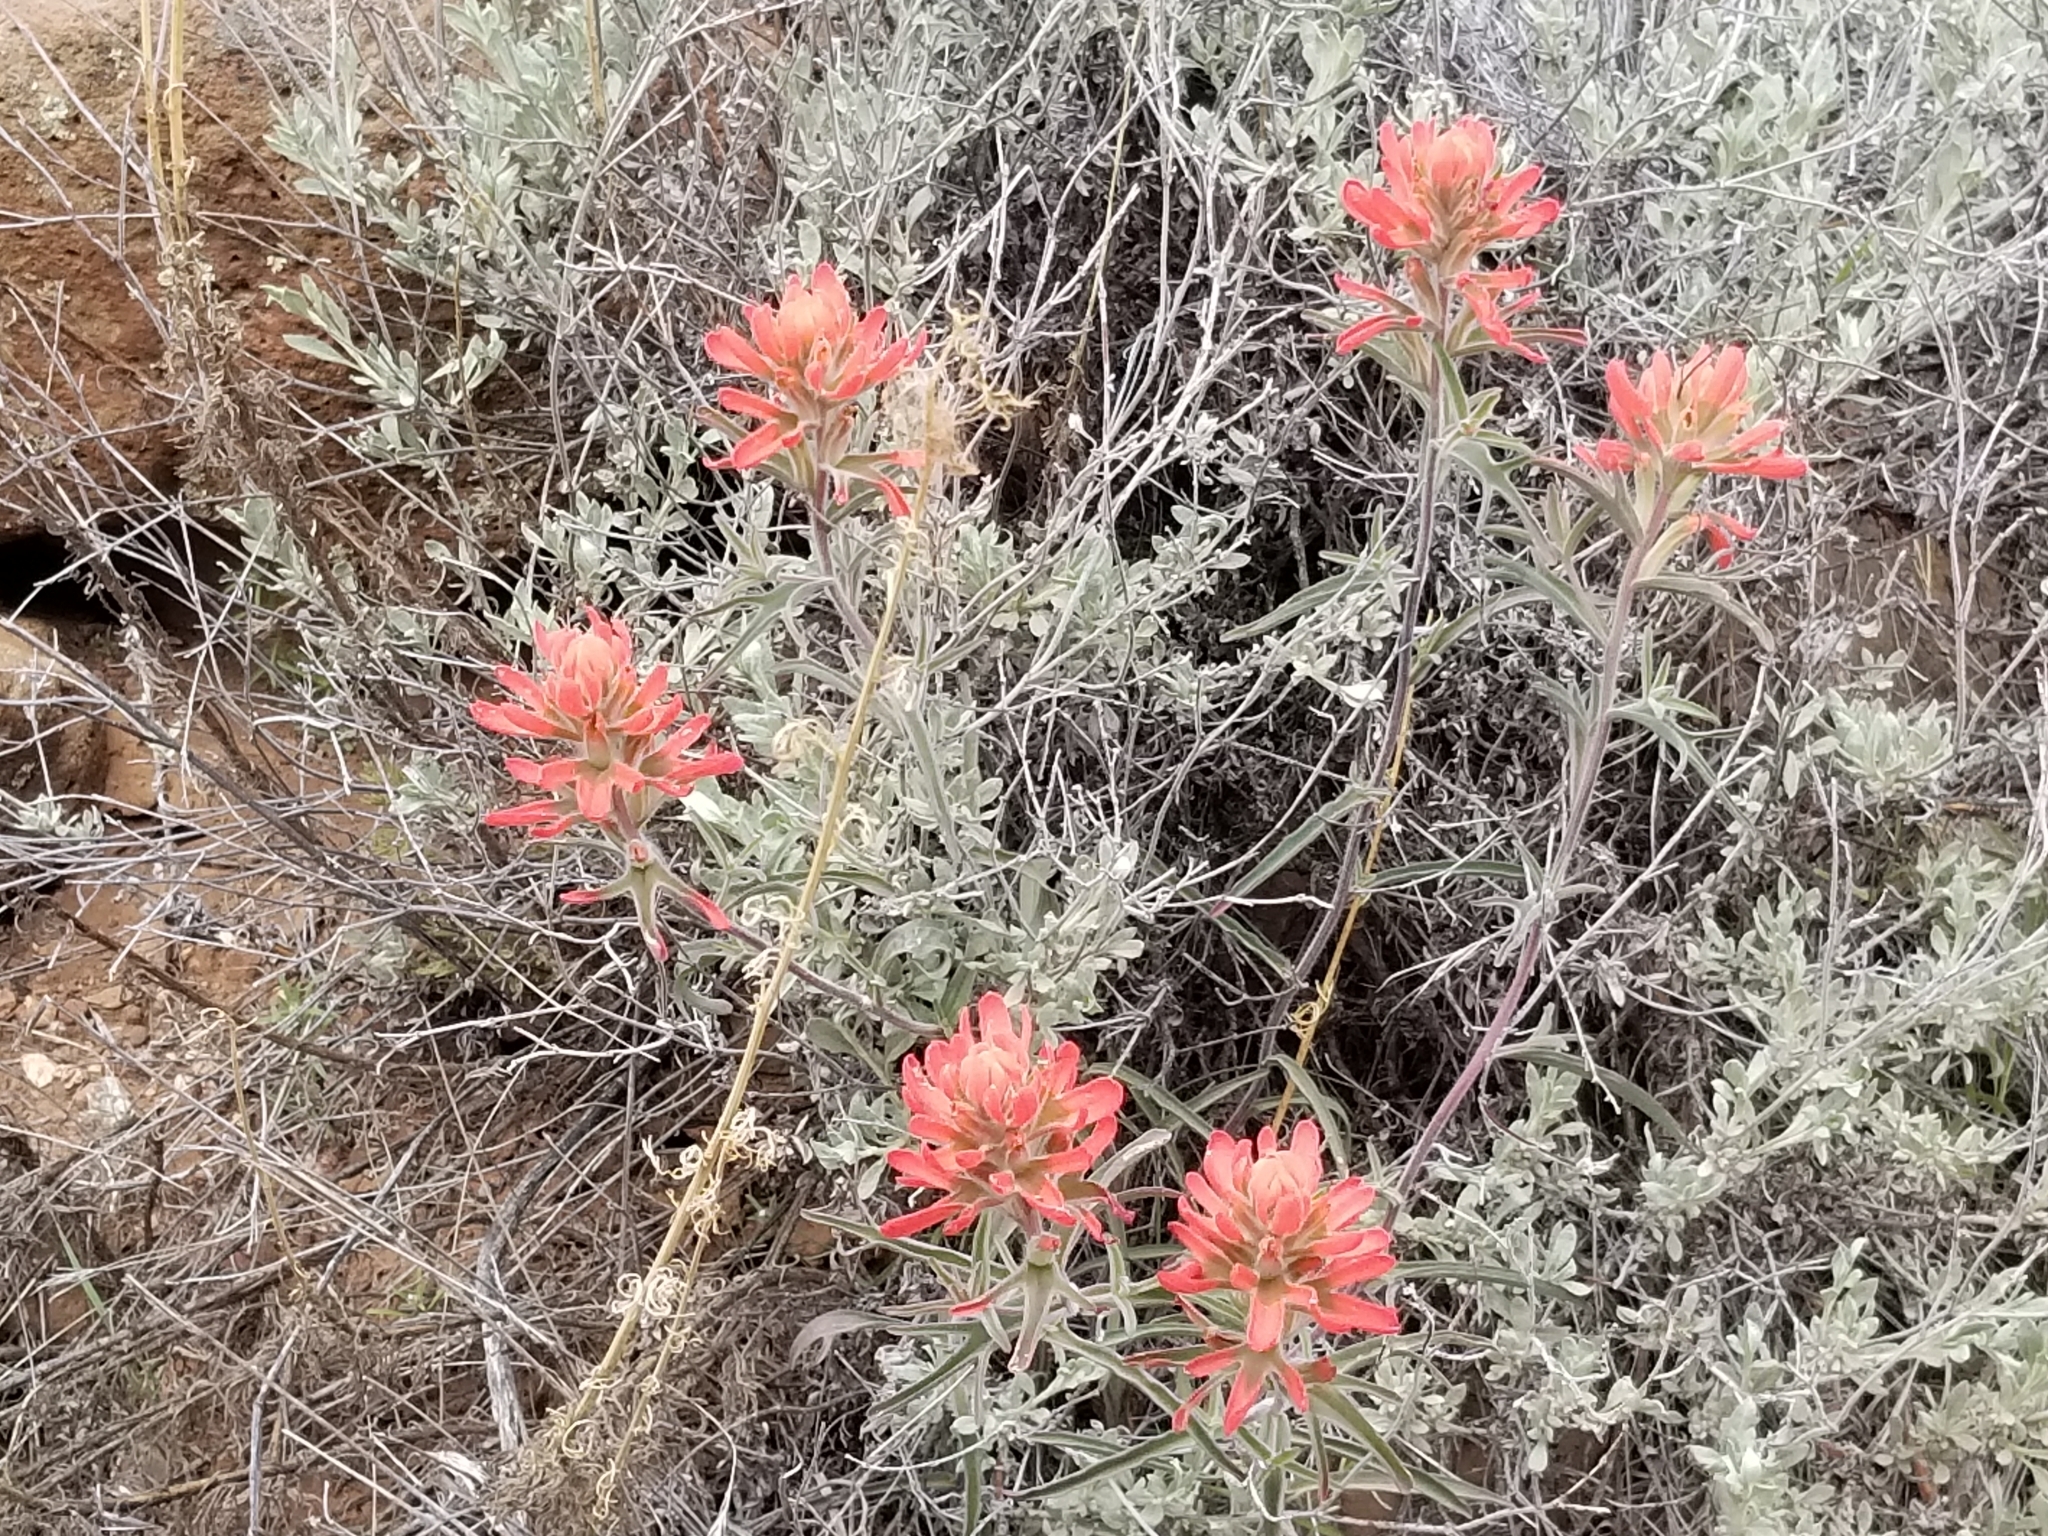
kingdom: Plantae
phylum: Tracheophyta
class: Magnoliopsida
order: Lamiales
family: Orobanchaceae
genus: Castilleja
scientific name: Castilleja chromosa
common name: Desert paintbrush
